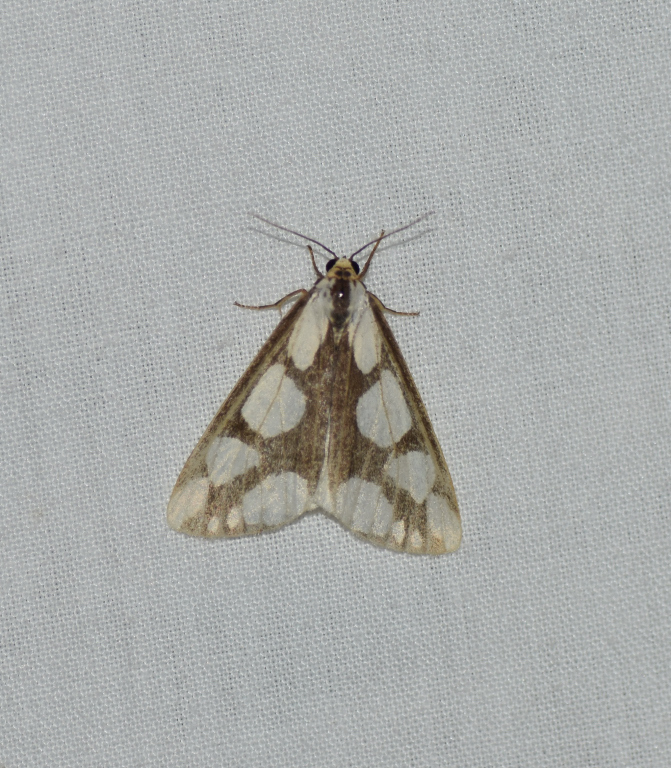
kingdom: Animalia
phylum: Arthropoda
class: Insecta
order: Lepidoptera
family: Erebidae
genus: Haploa
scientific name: Haploa lecontei
